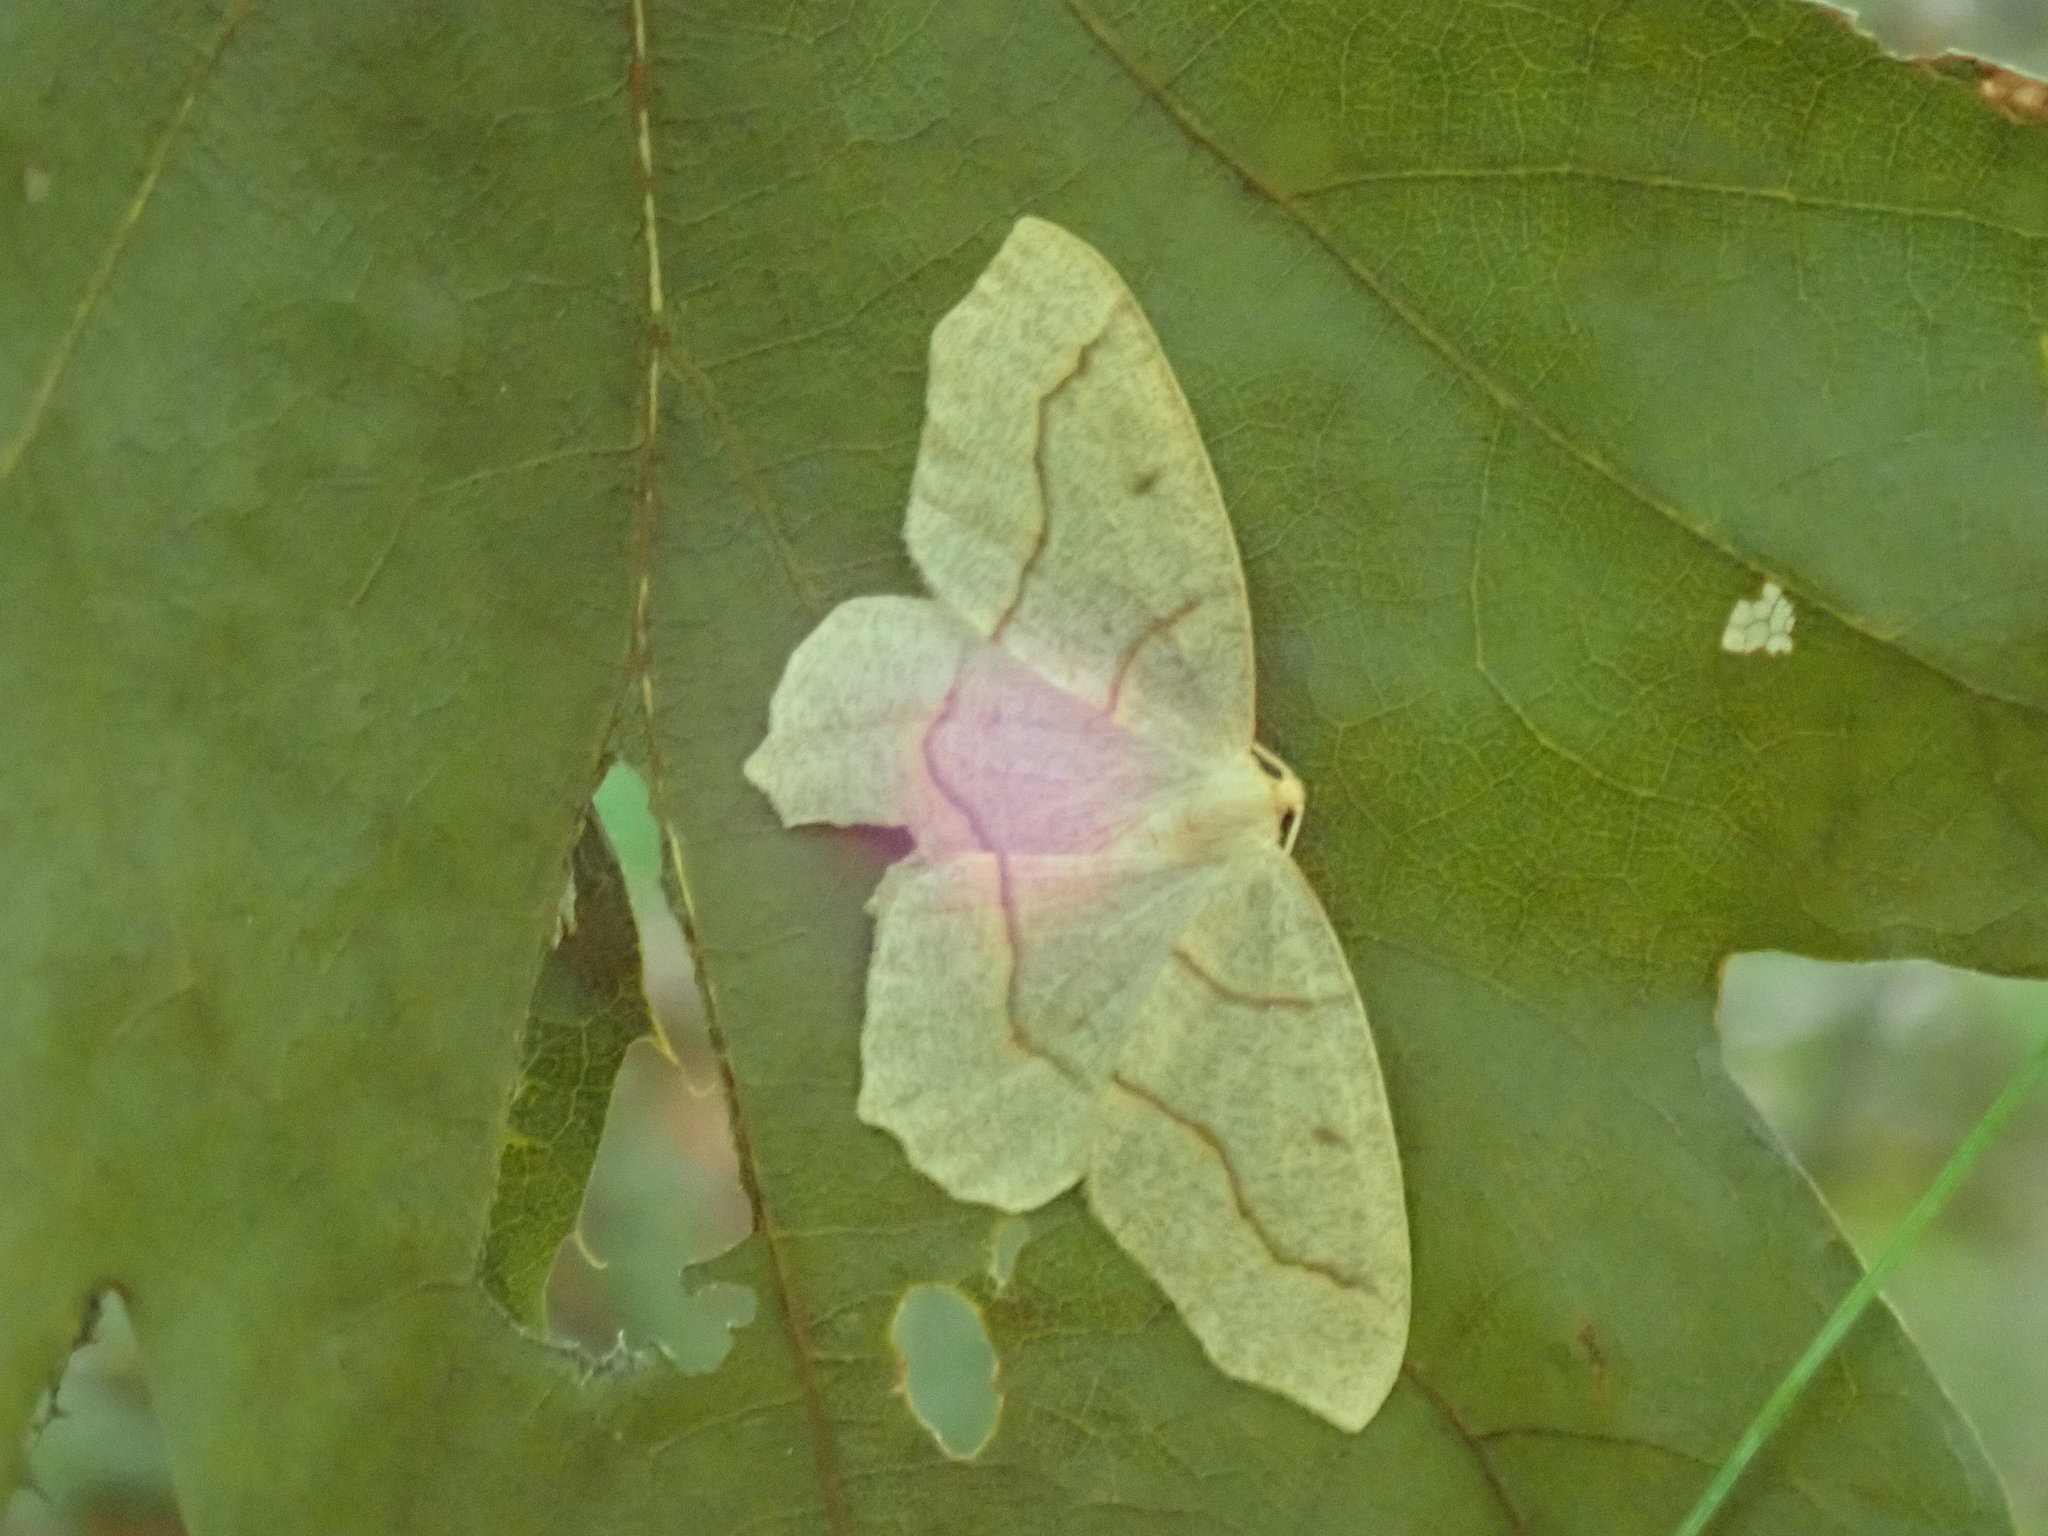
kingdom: Animalia
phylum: Arthropoda
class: Insecta
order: Lepidoptera
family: Geometridae
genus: Lambdina
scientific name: Lambdina fiscellaria
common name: Hemlock looper
